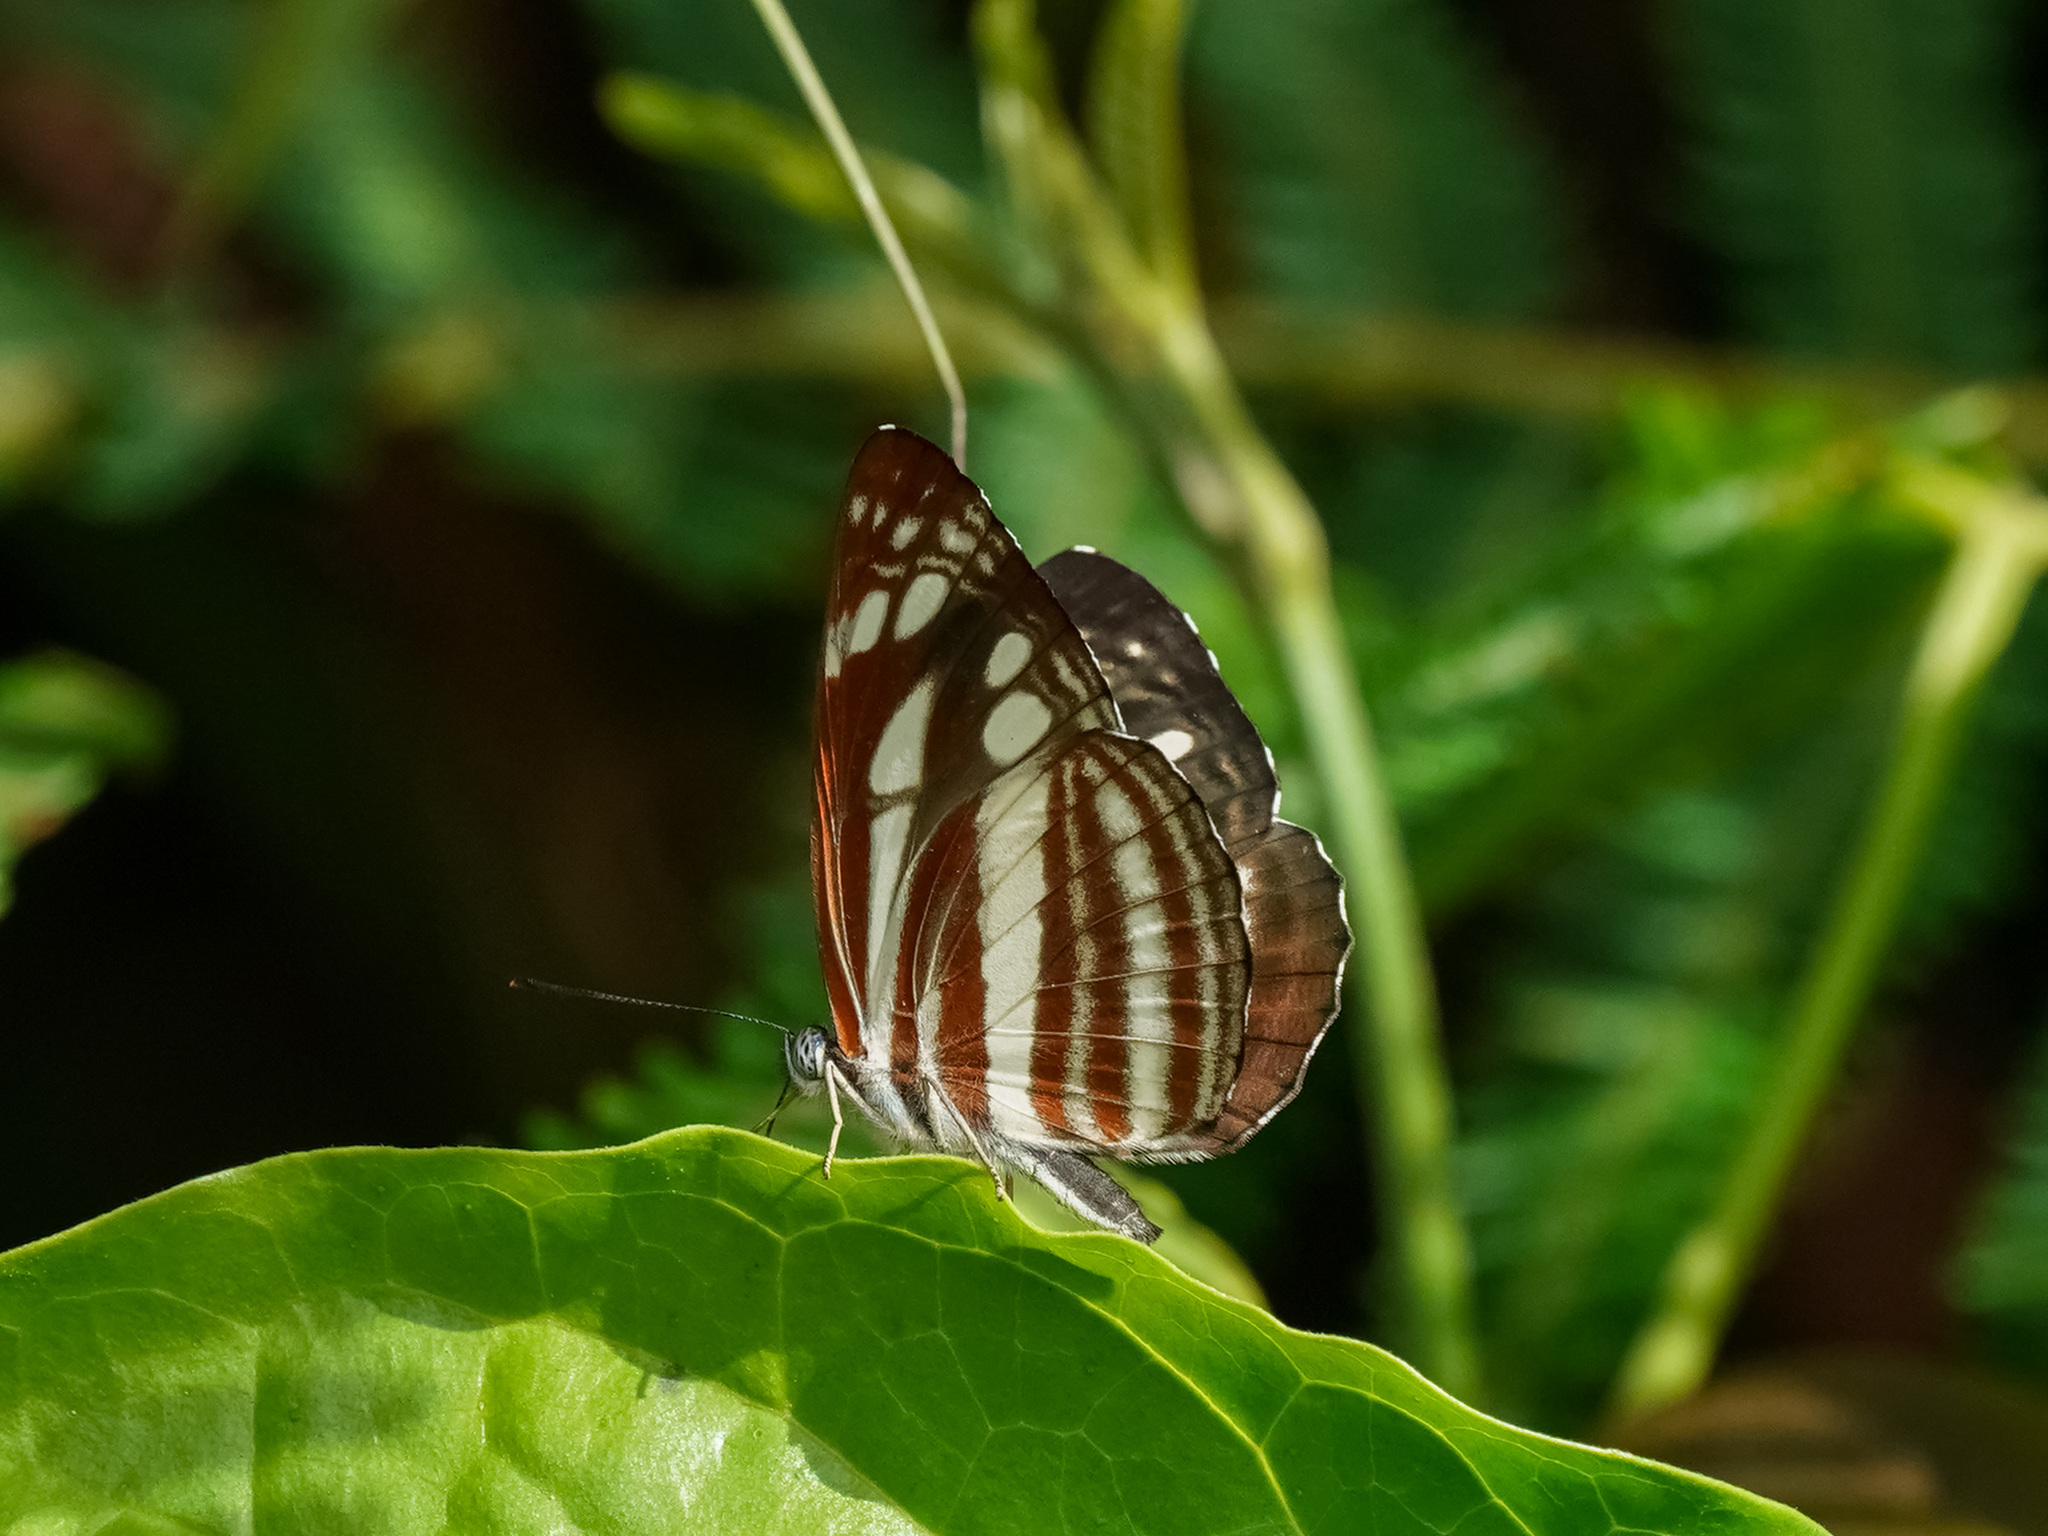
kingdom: Animalia
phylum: Arthropoda
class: Insecta
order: Lepidoptera
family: Nymphalidae
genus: Neptis
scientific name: Neptis soma
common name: Cream-spotted sailor
